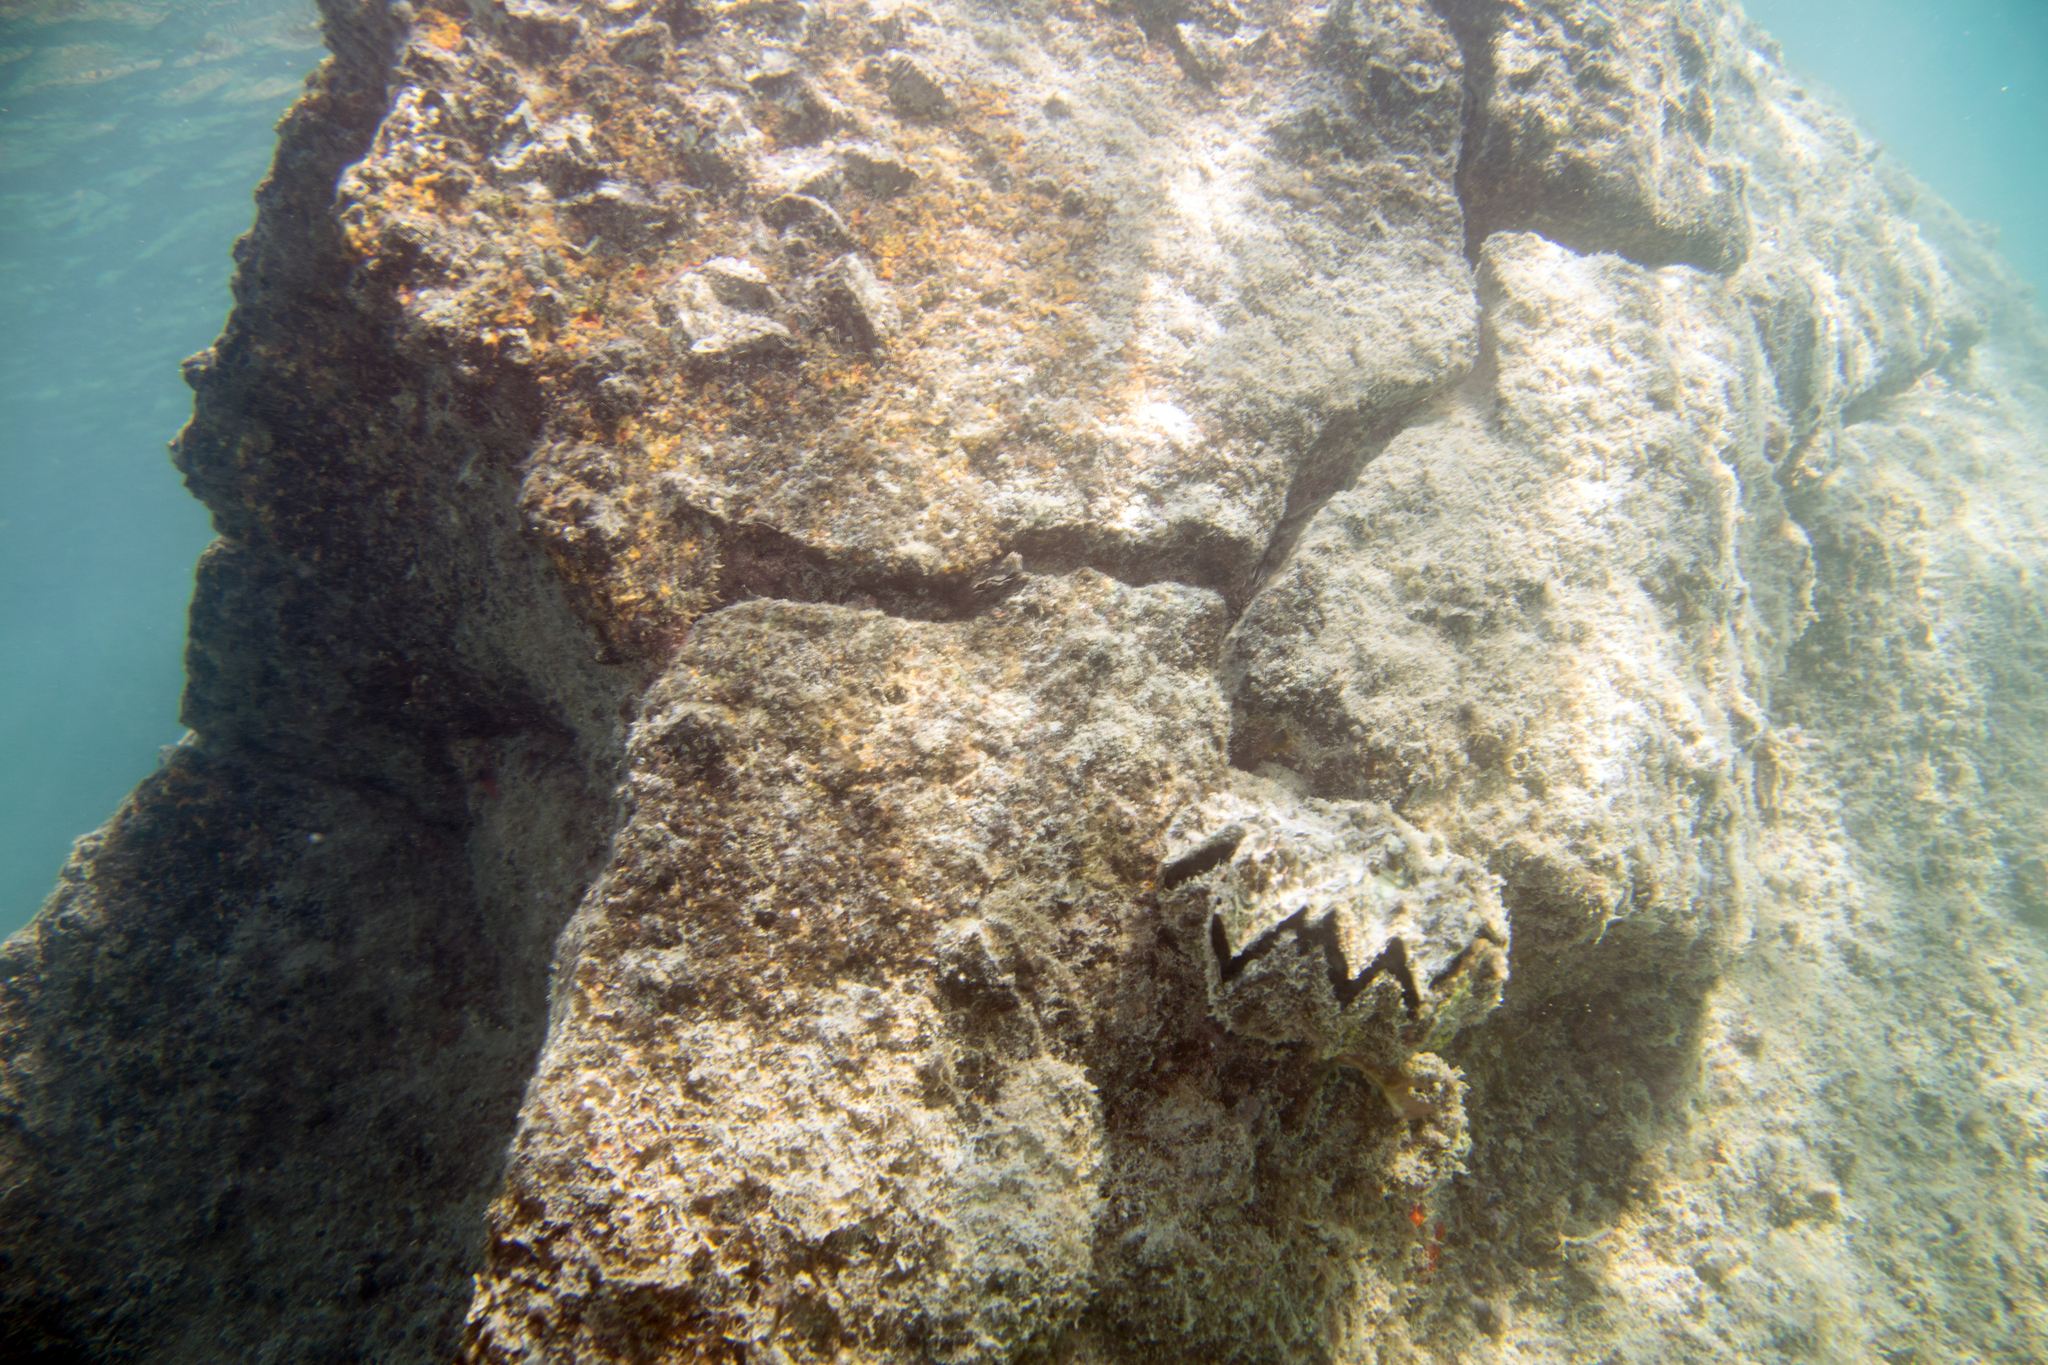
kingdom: Animalia
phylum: Mollusca
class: Bivalvia
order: Ostreida
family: Ostreidae
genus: Lopha
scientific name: Lopha cristagalli
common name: Cock's-comb oyster
